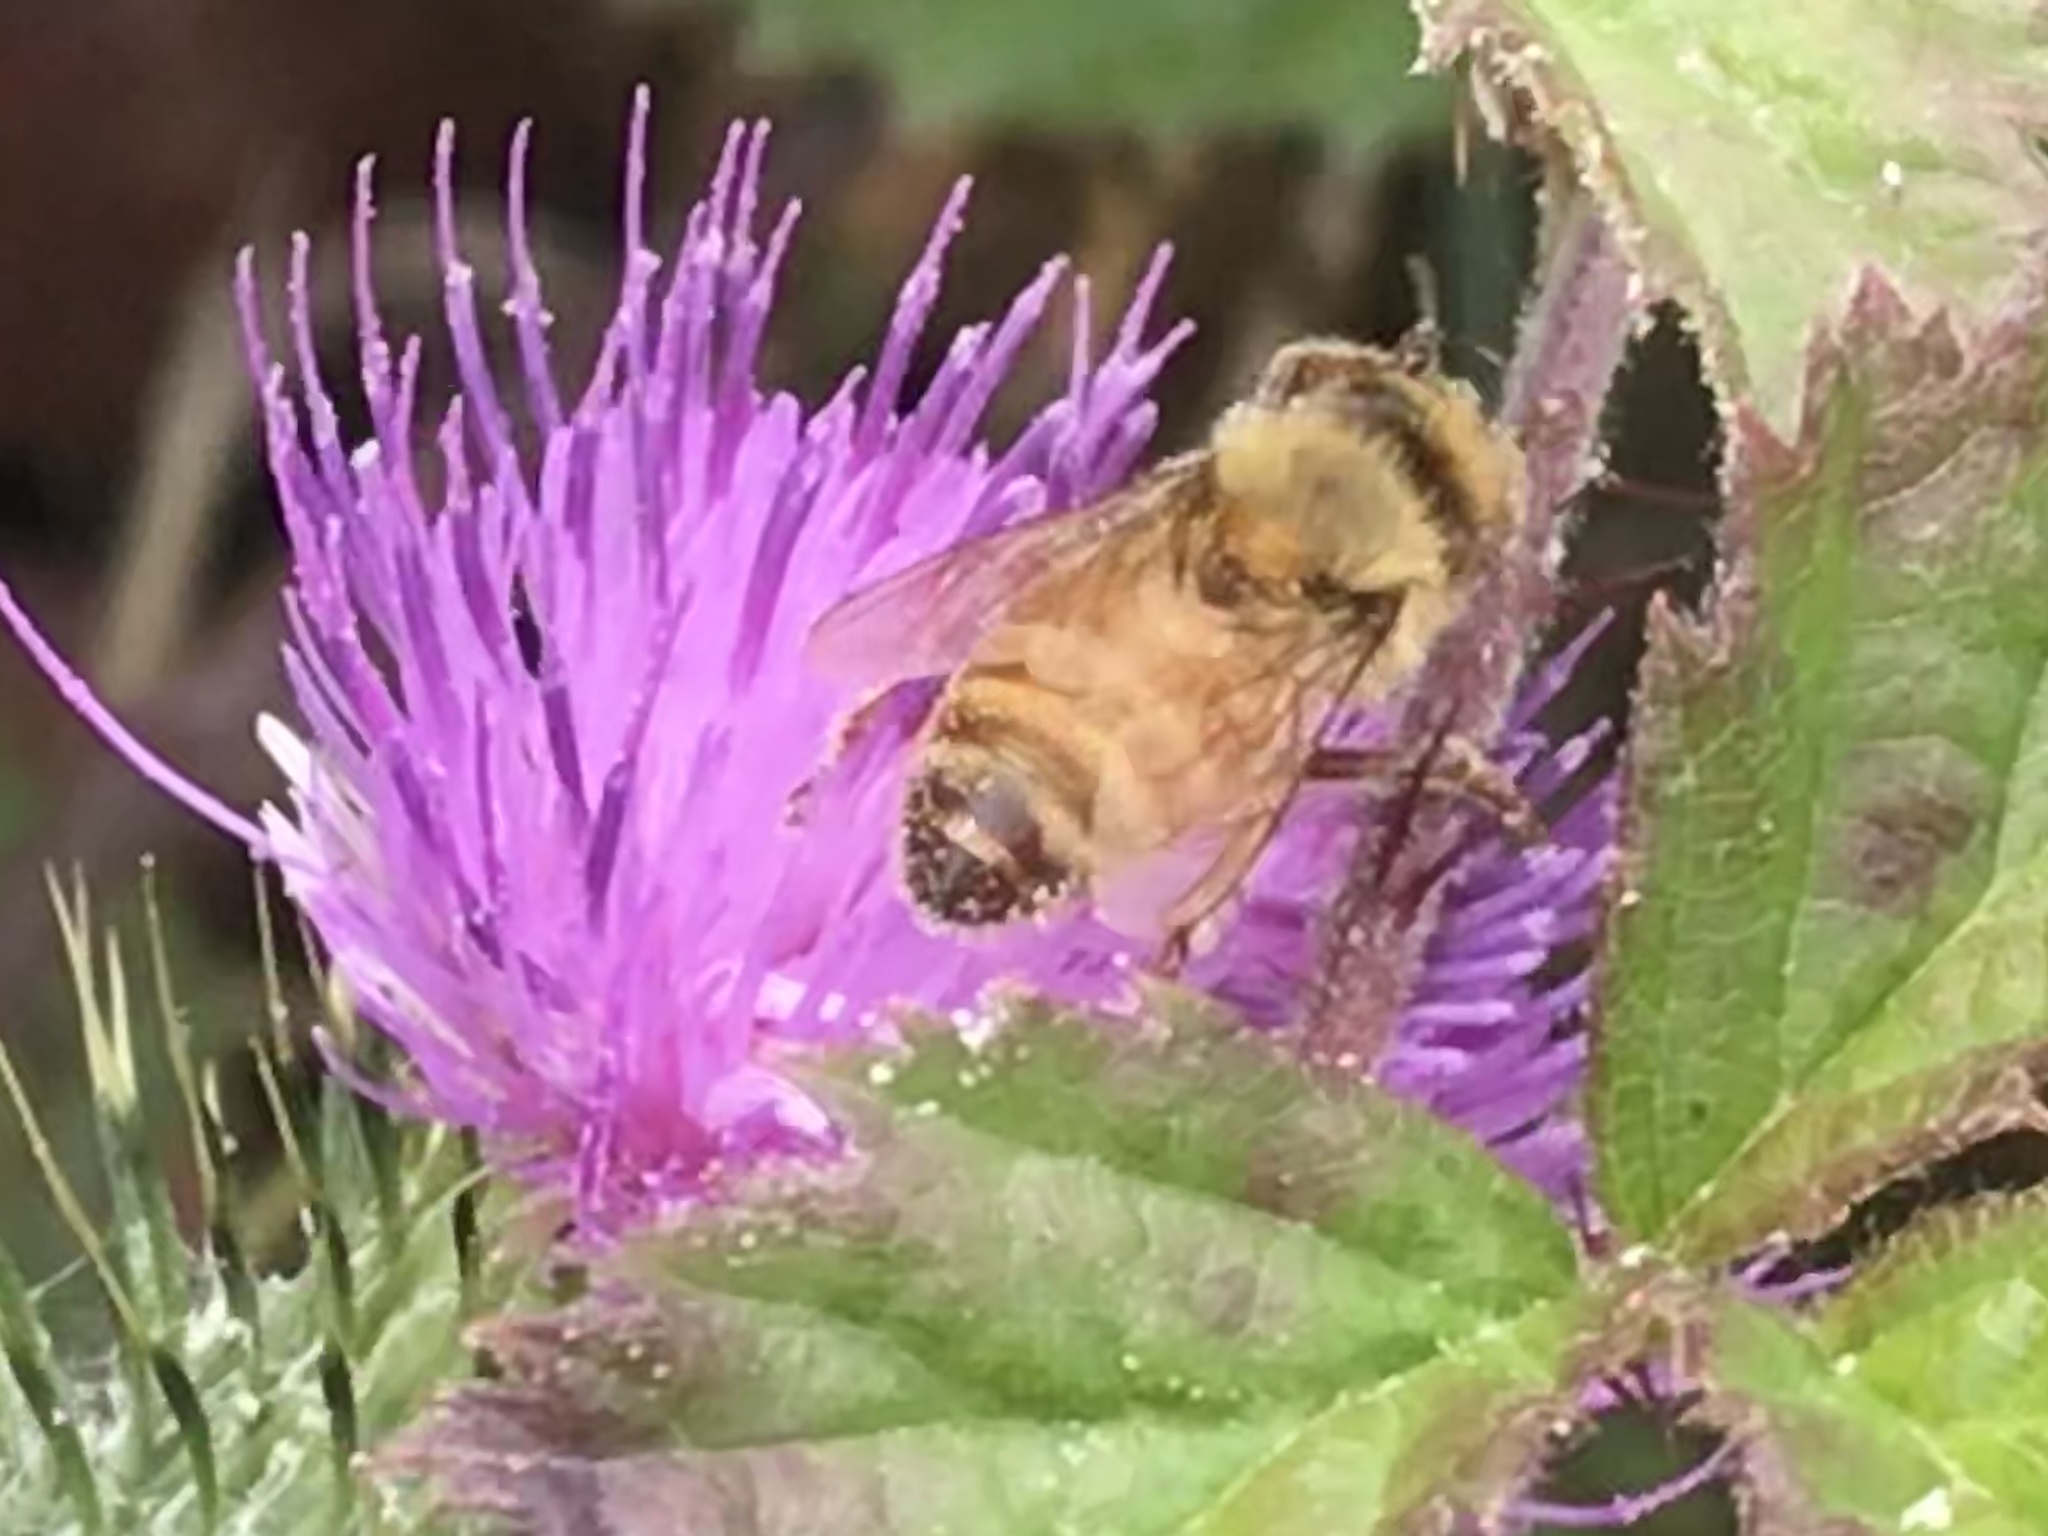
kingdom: Animalia
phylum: Arthropoda
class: Insecta
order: Hymenoptera
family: Apidae
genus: Apis
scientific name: Apis mellifera
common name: Honey bee
